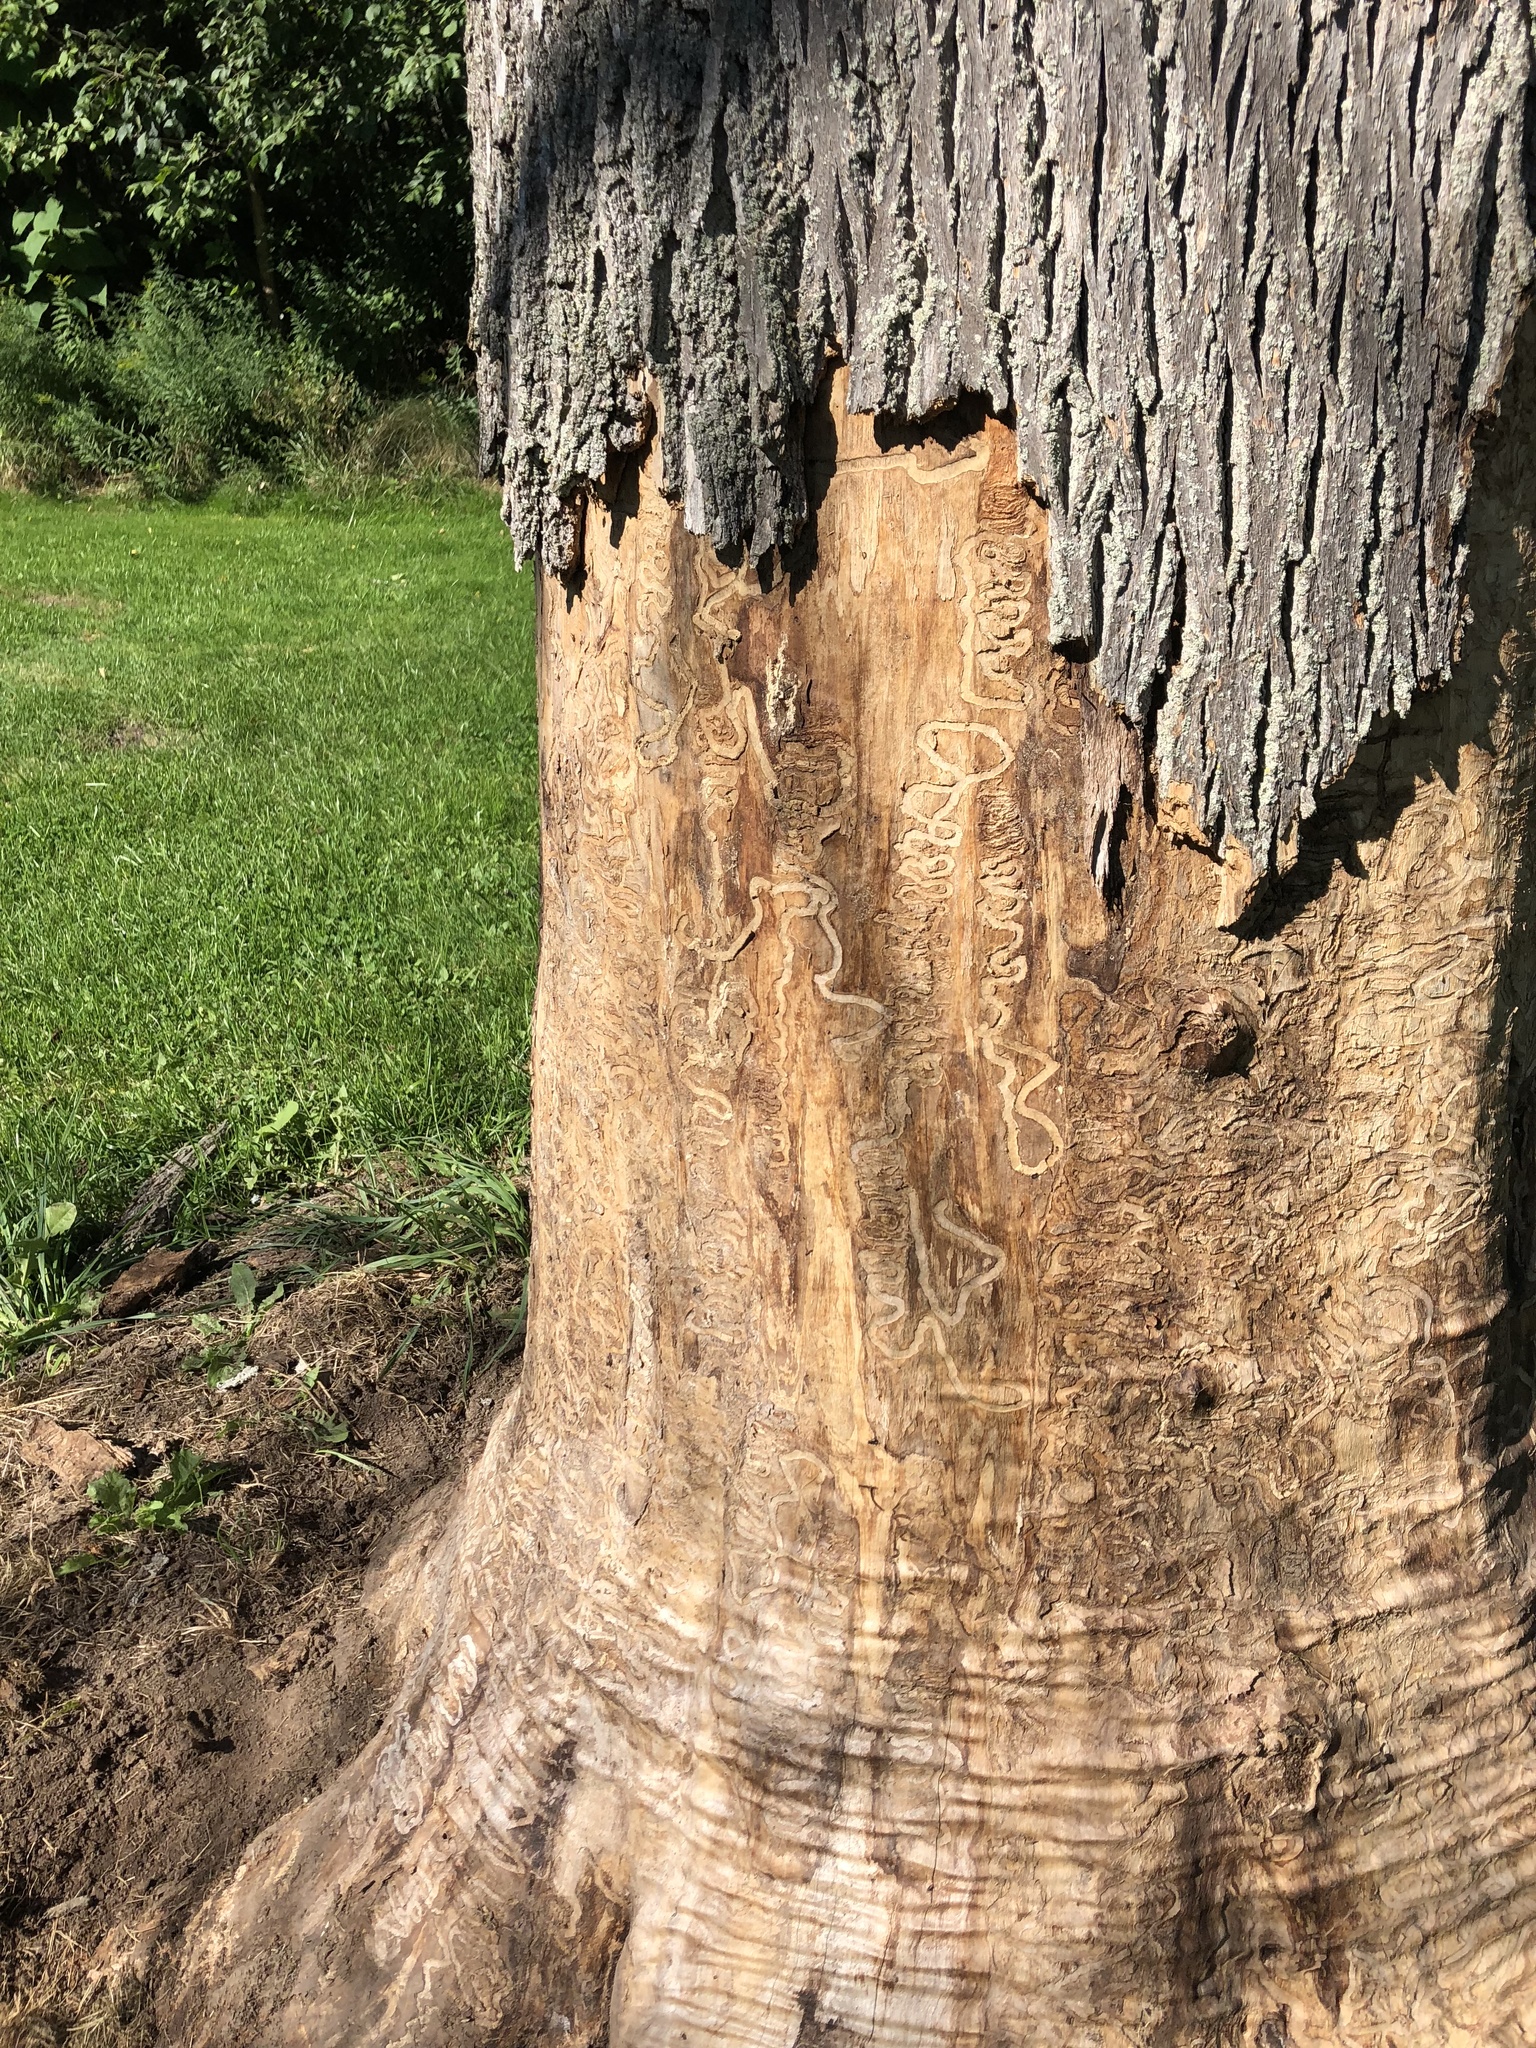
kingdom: Animalia
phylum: Arthropoda
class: Insecta
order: Coleoptera
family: Buprestidae
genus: Agrilus
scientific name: Agrilus planipennis
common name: Emerald ash borer
